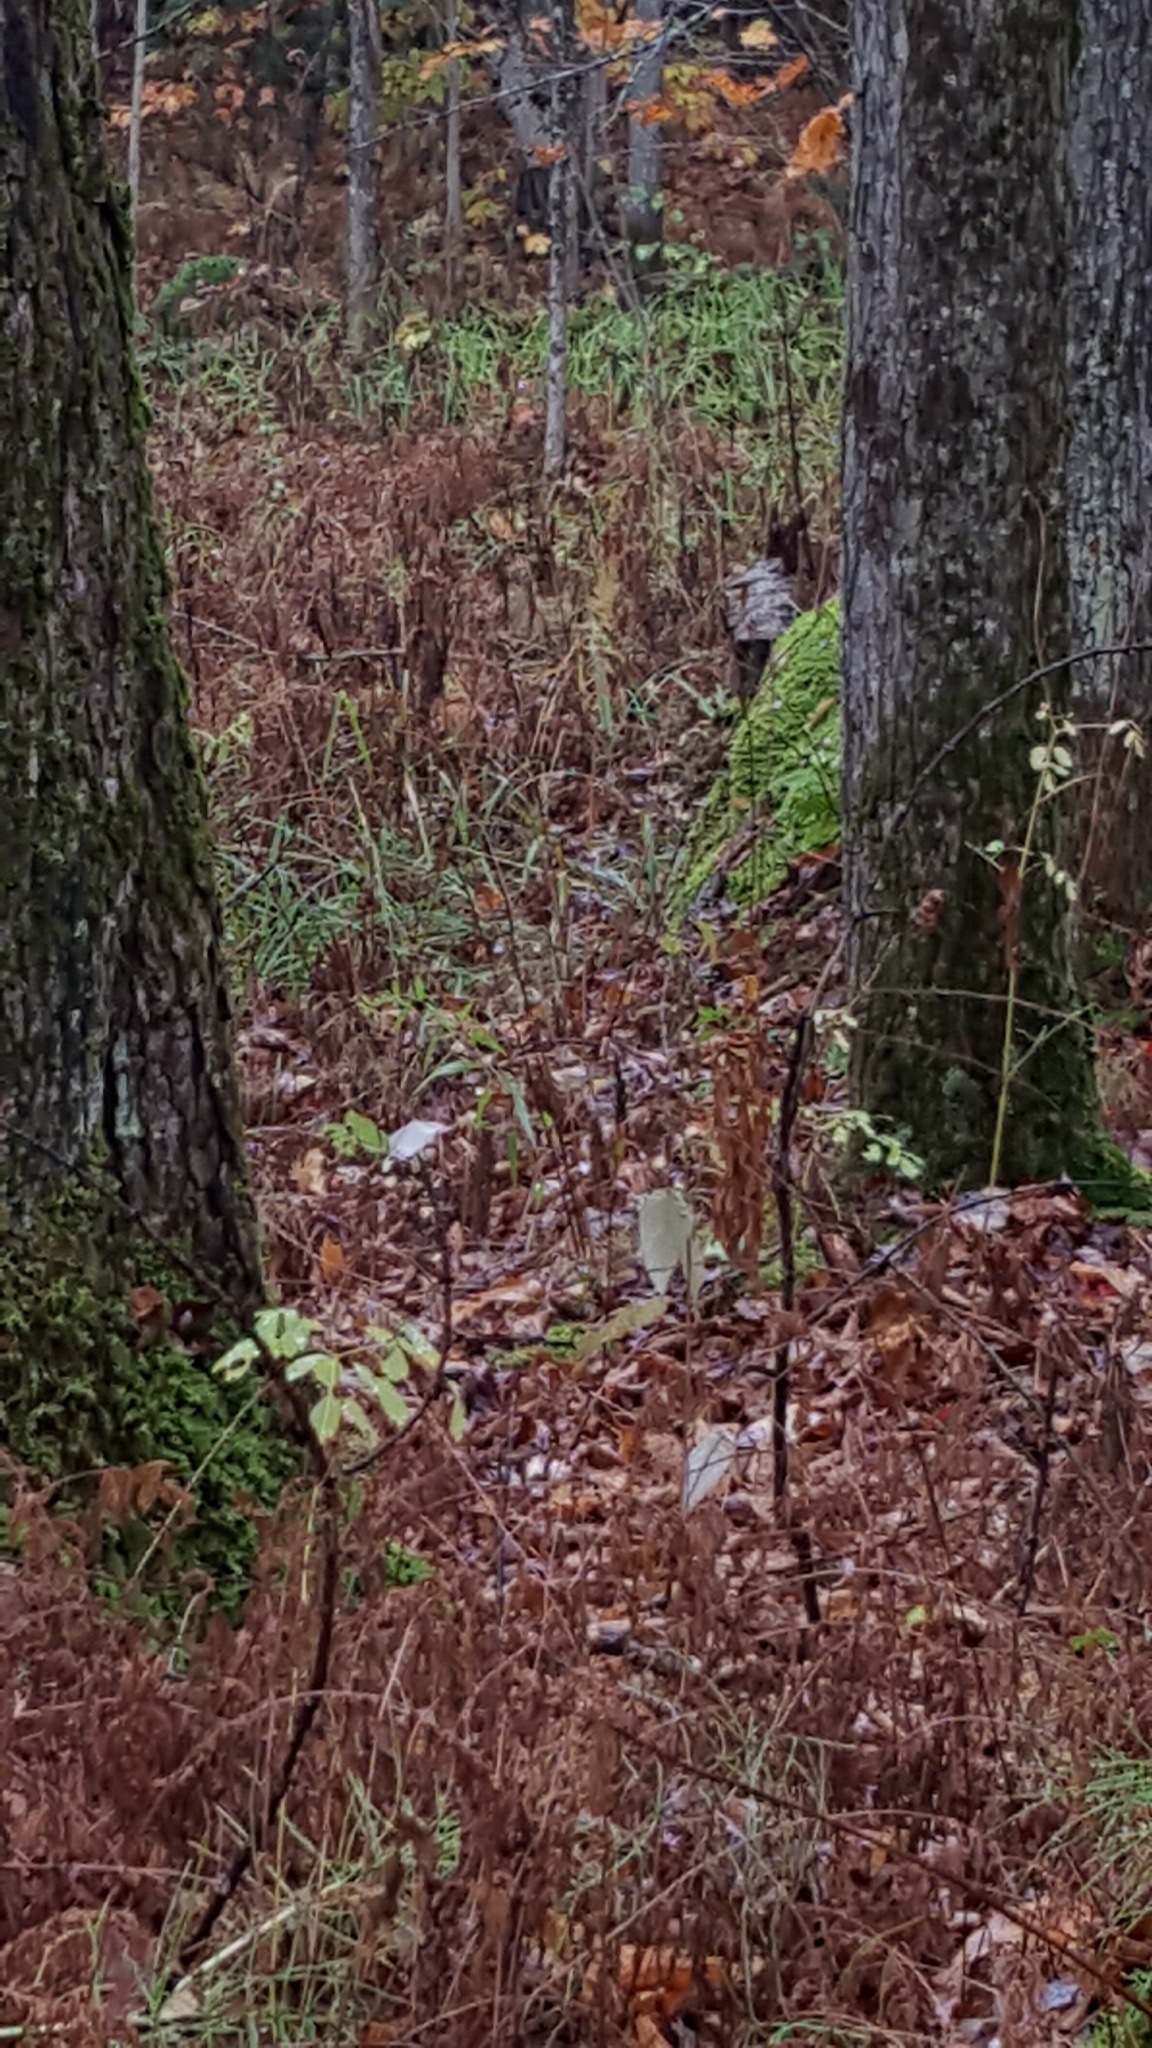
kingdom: Plantae
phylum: Tracheophyta
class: Polypodiopsida
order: Polypodiales
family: Onocleaceae
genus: Onoclea
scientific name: Onoclea sensibilis
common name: Sensitive fern
